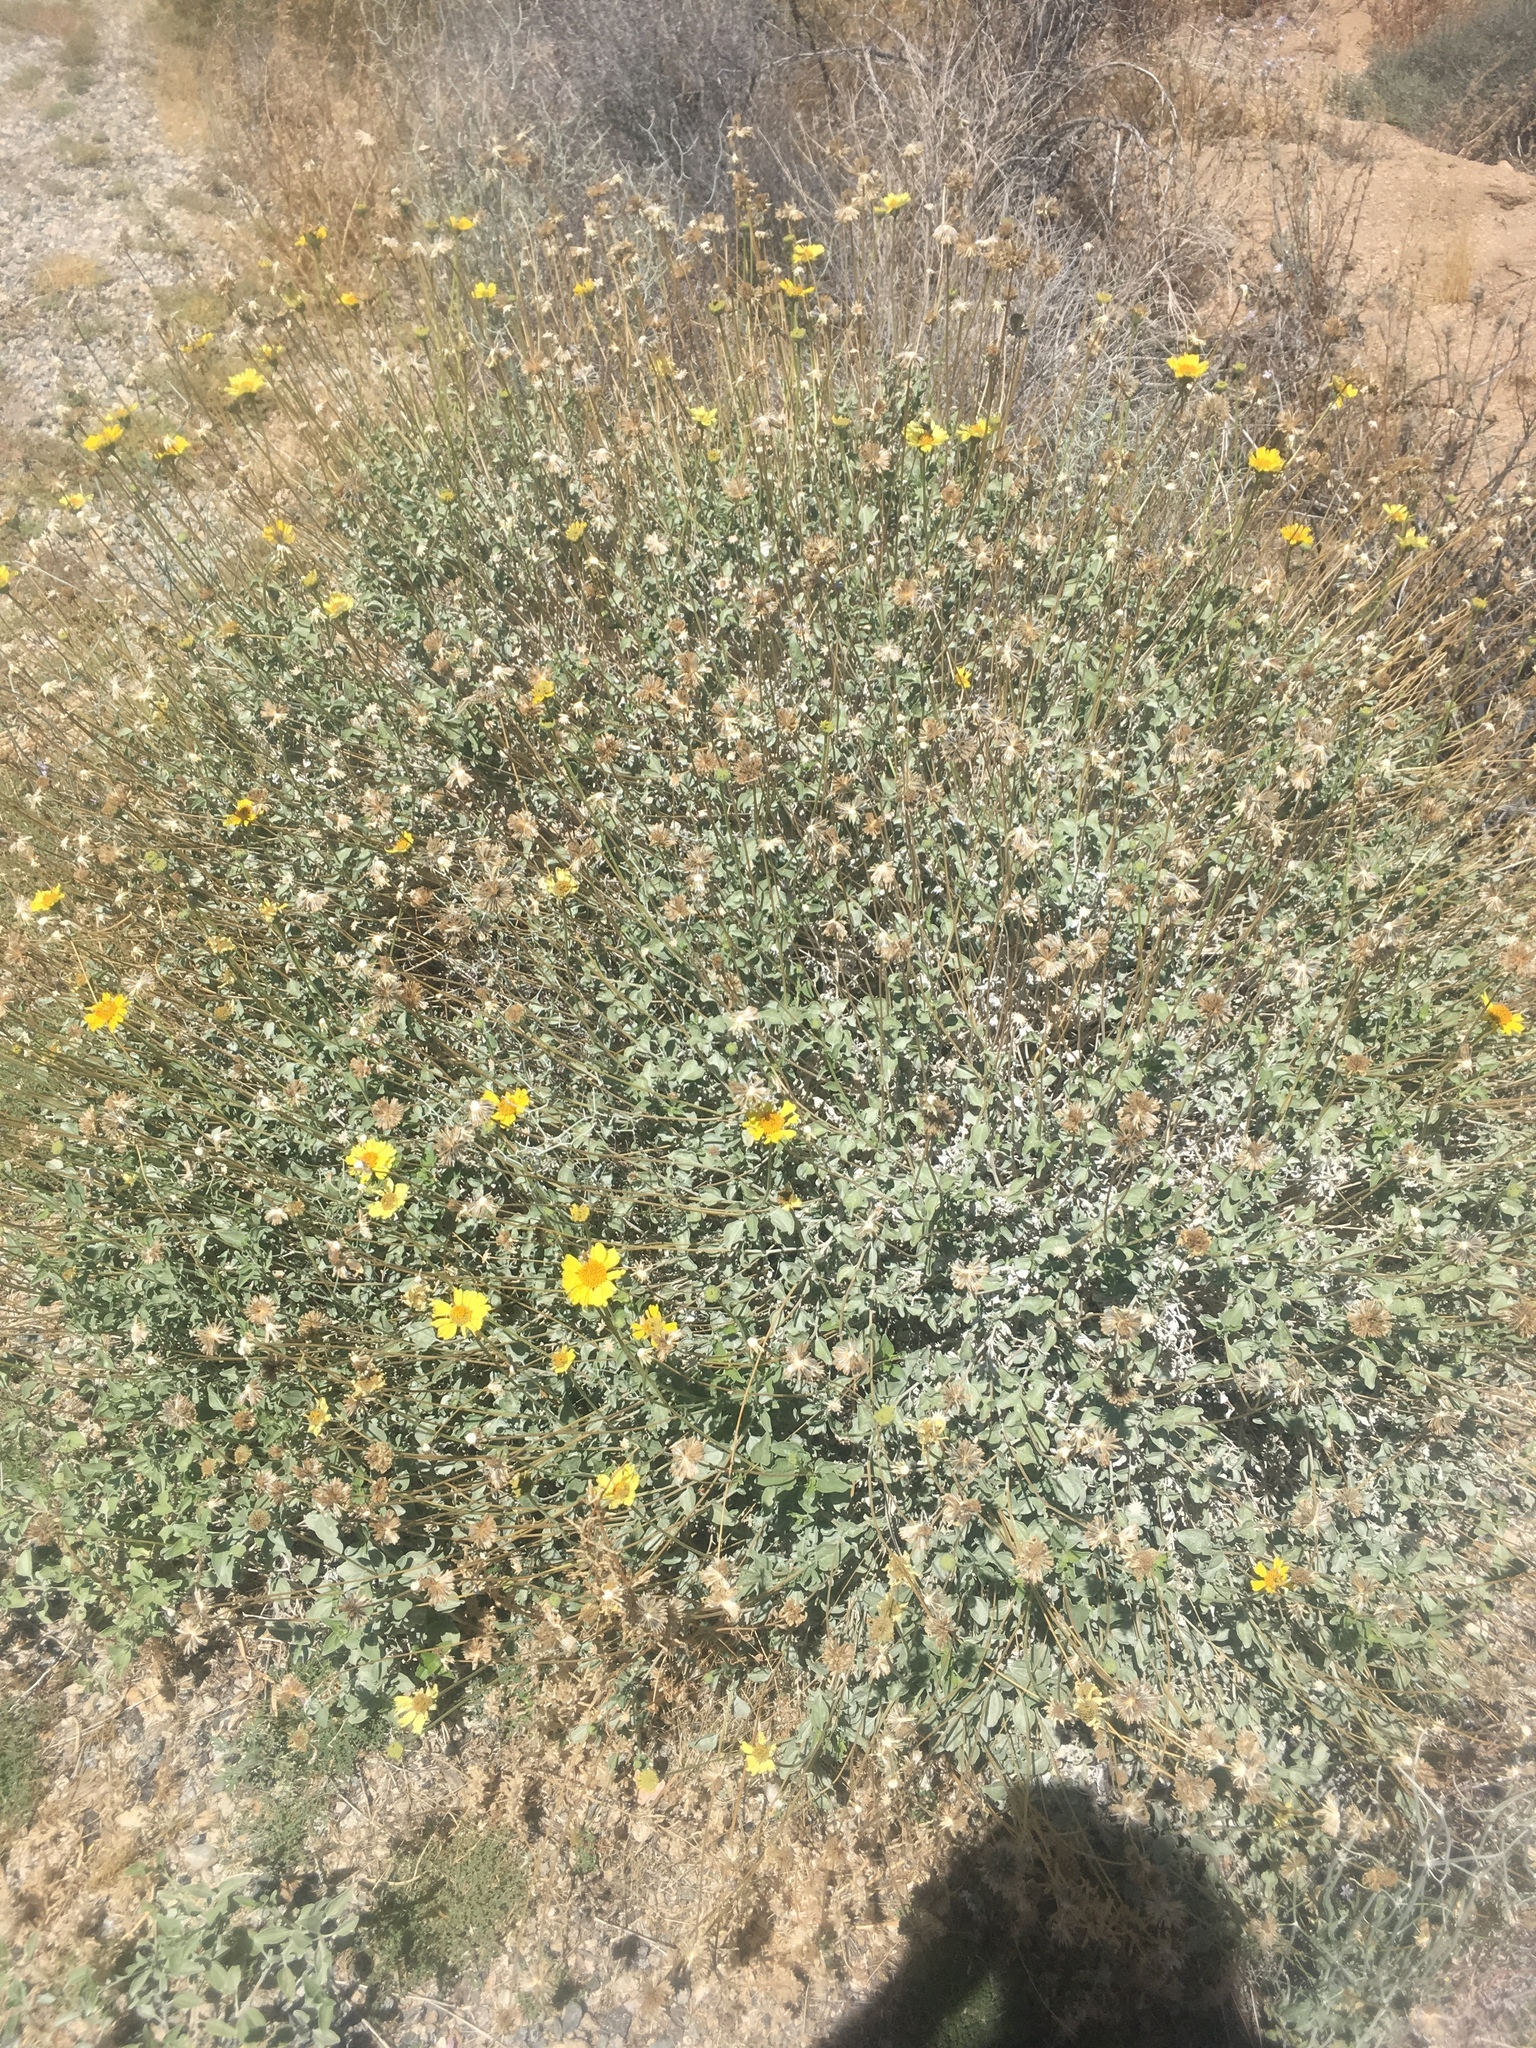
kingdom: Plantae
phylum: Tracheophyta
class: Magnoliopsida
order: Asterales
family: Asteraceae
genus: Encelia
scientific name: Encelia actoni
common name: Acton encelia
